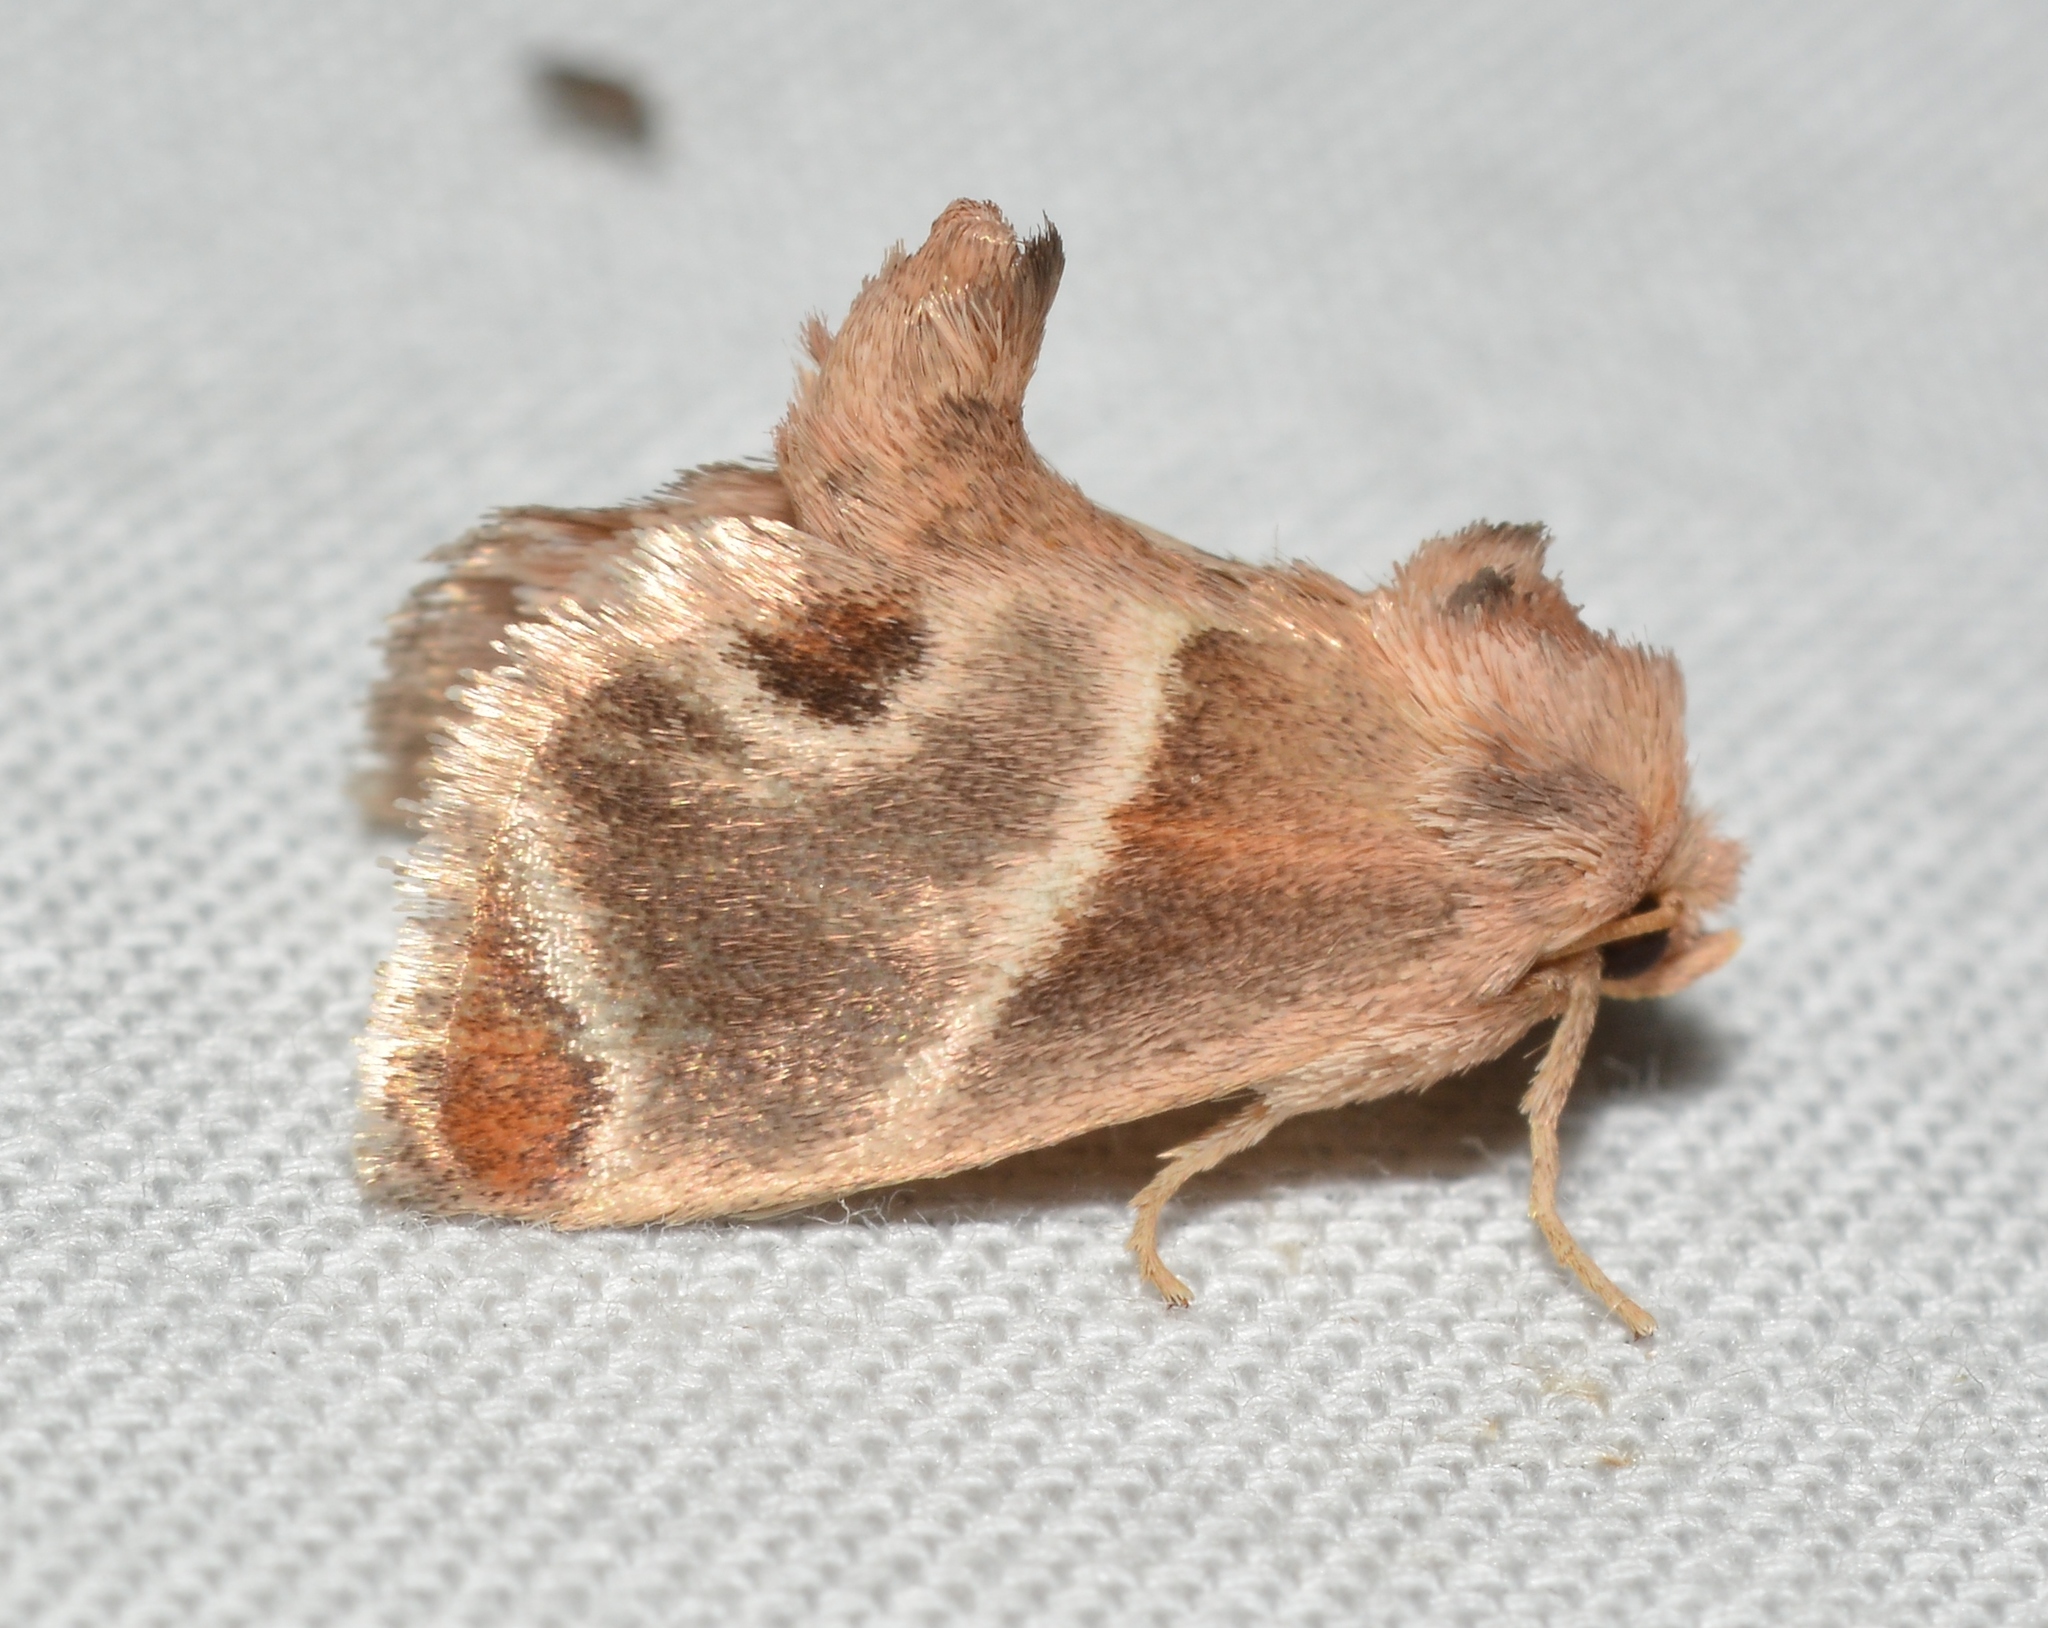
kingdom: Animalia
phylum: Arthropoda
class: Insecta
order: Lepidoptera
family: Limacodidae
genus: Apoda
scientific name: Apoda biguttata
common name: Shagreened slug moth
